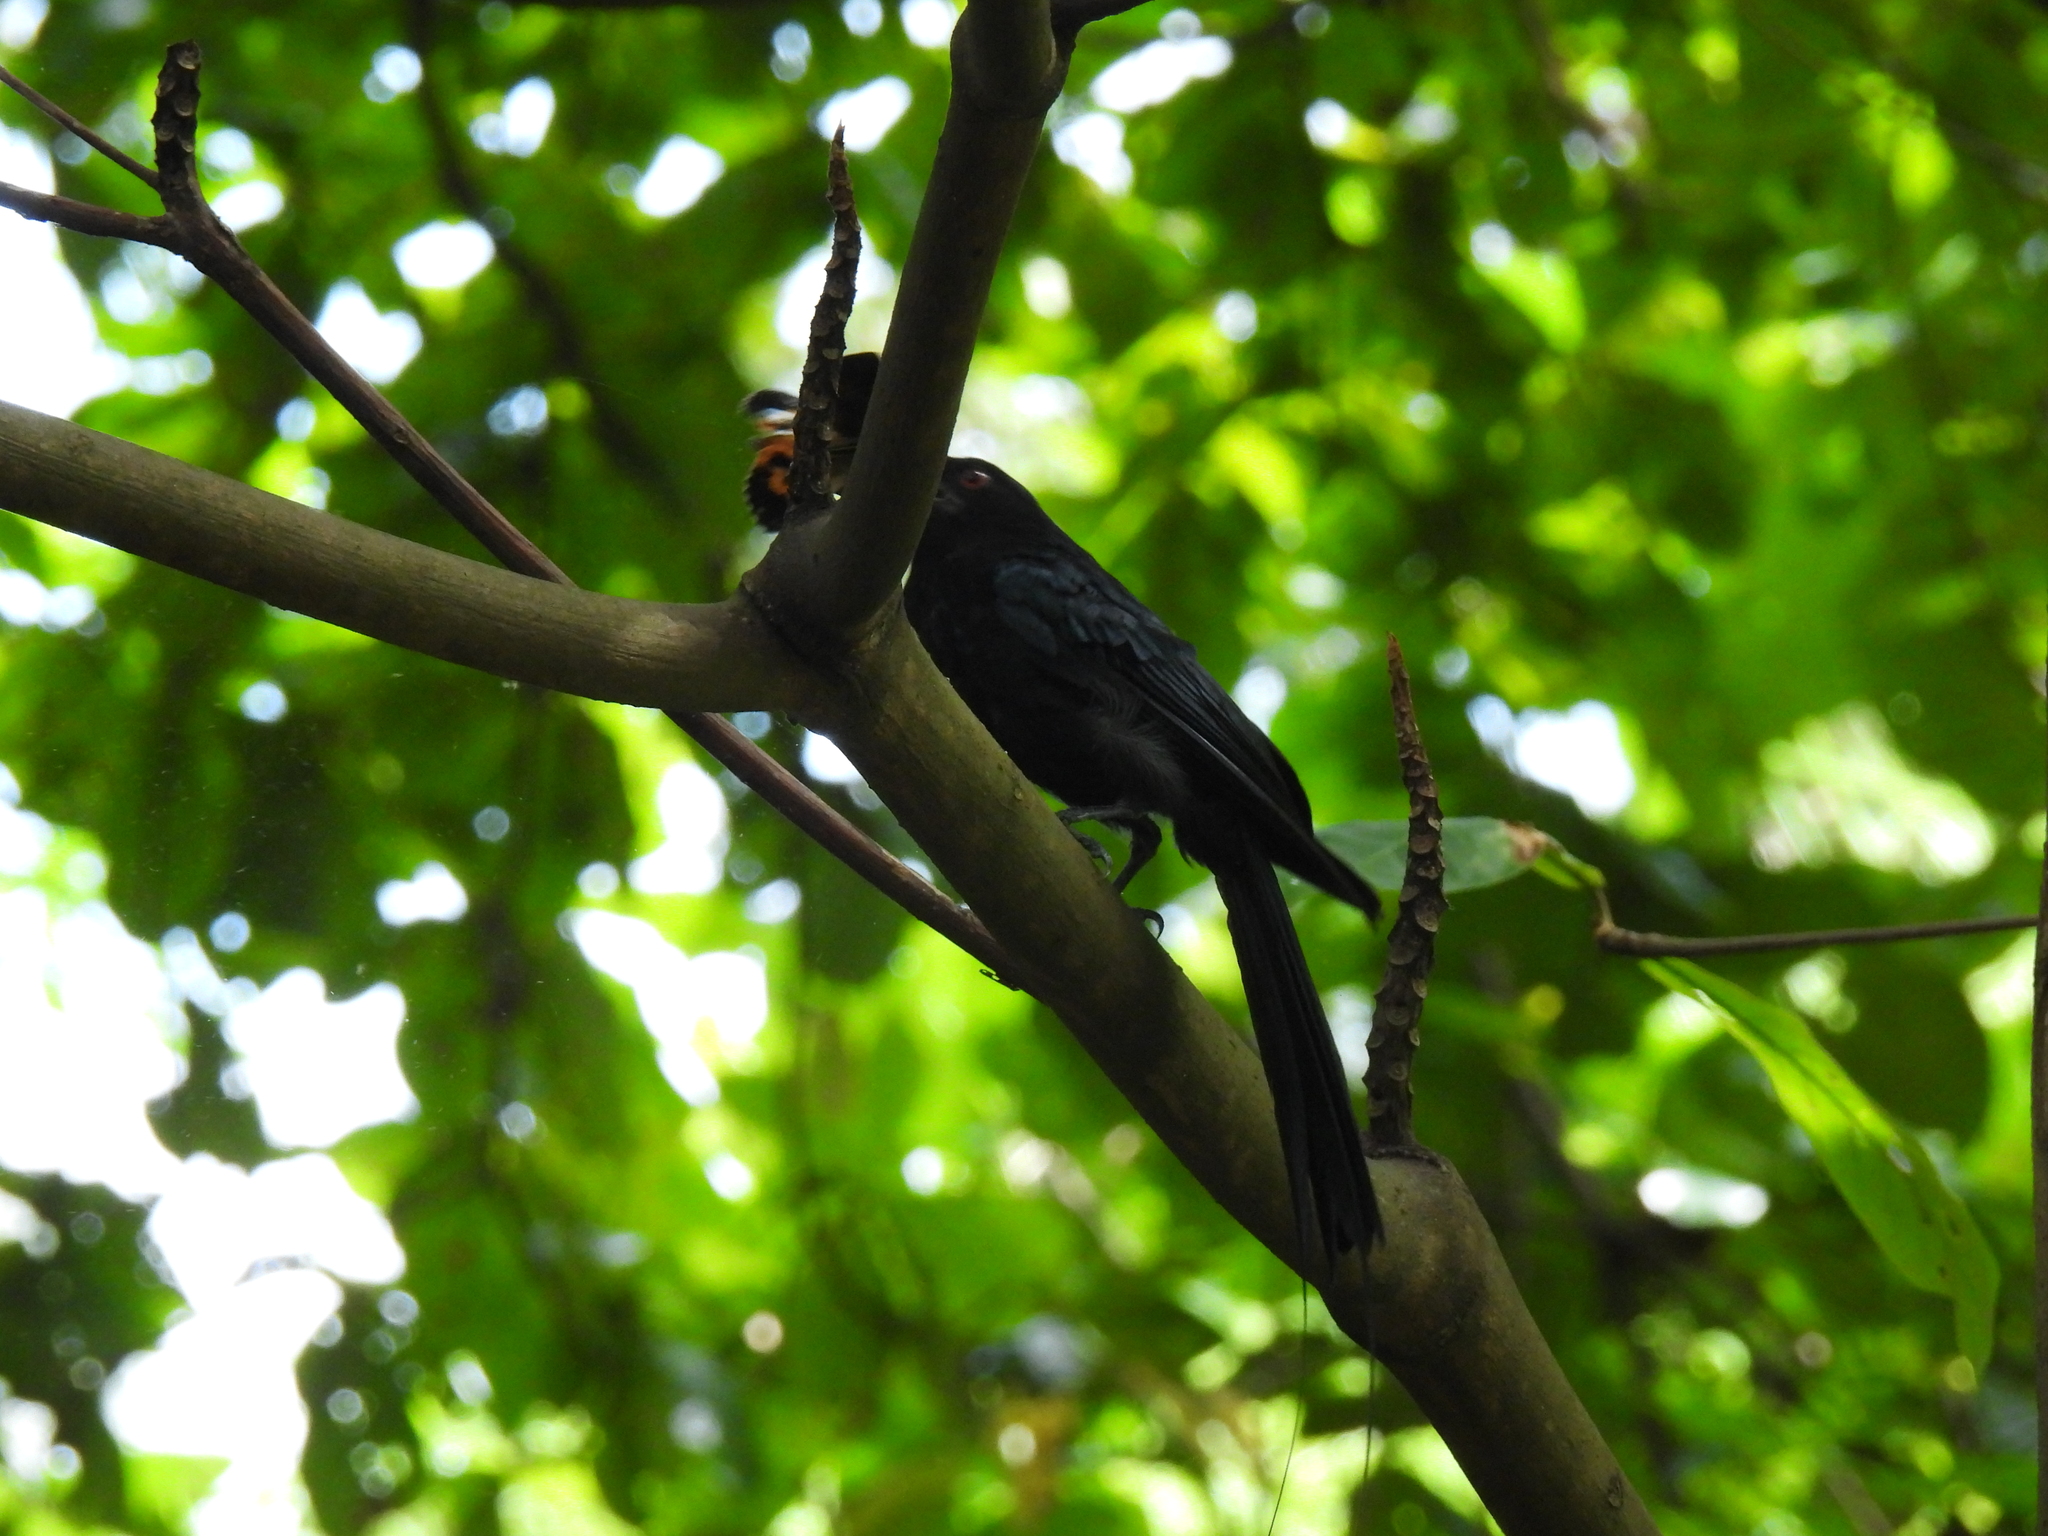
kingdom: Animalia
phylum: Chordata
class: Aves
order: Passeriformes
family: Dicruridae
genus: Dicrurus
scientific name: Dicrurus paradiseus
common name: Greater racket-tailed drongo
